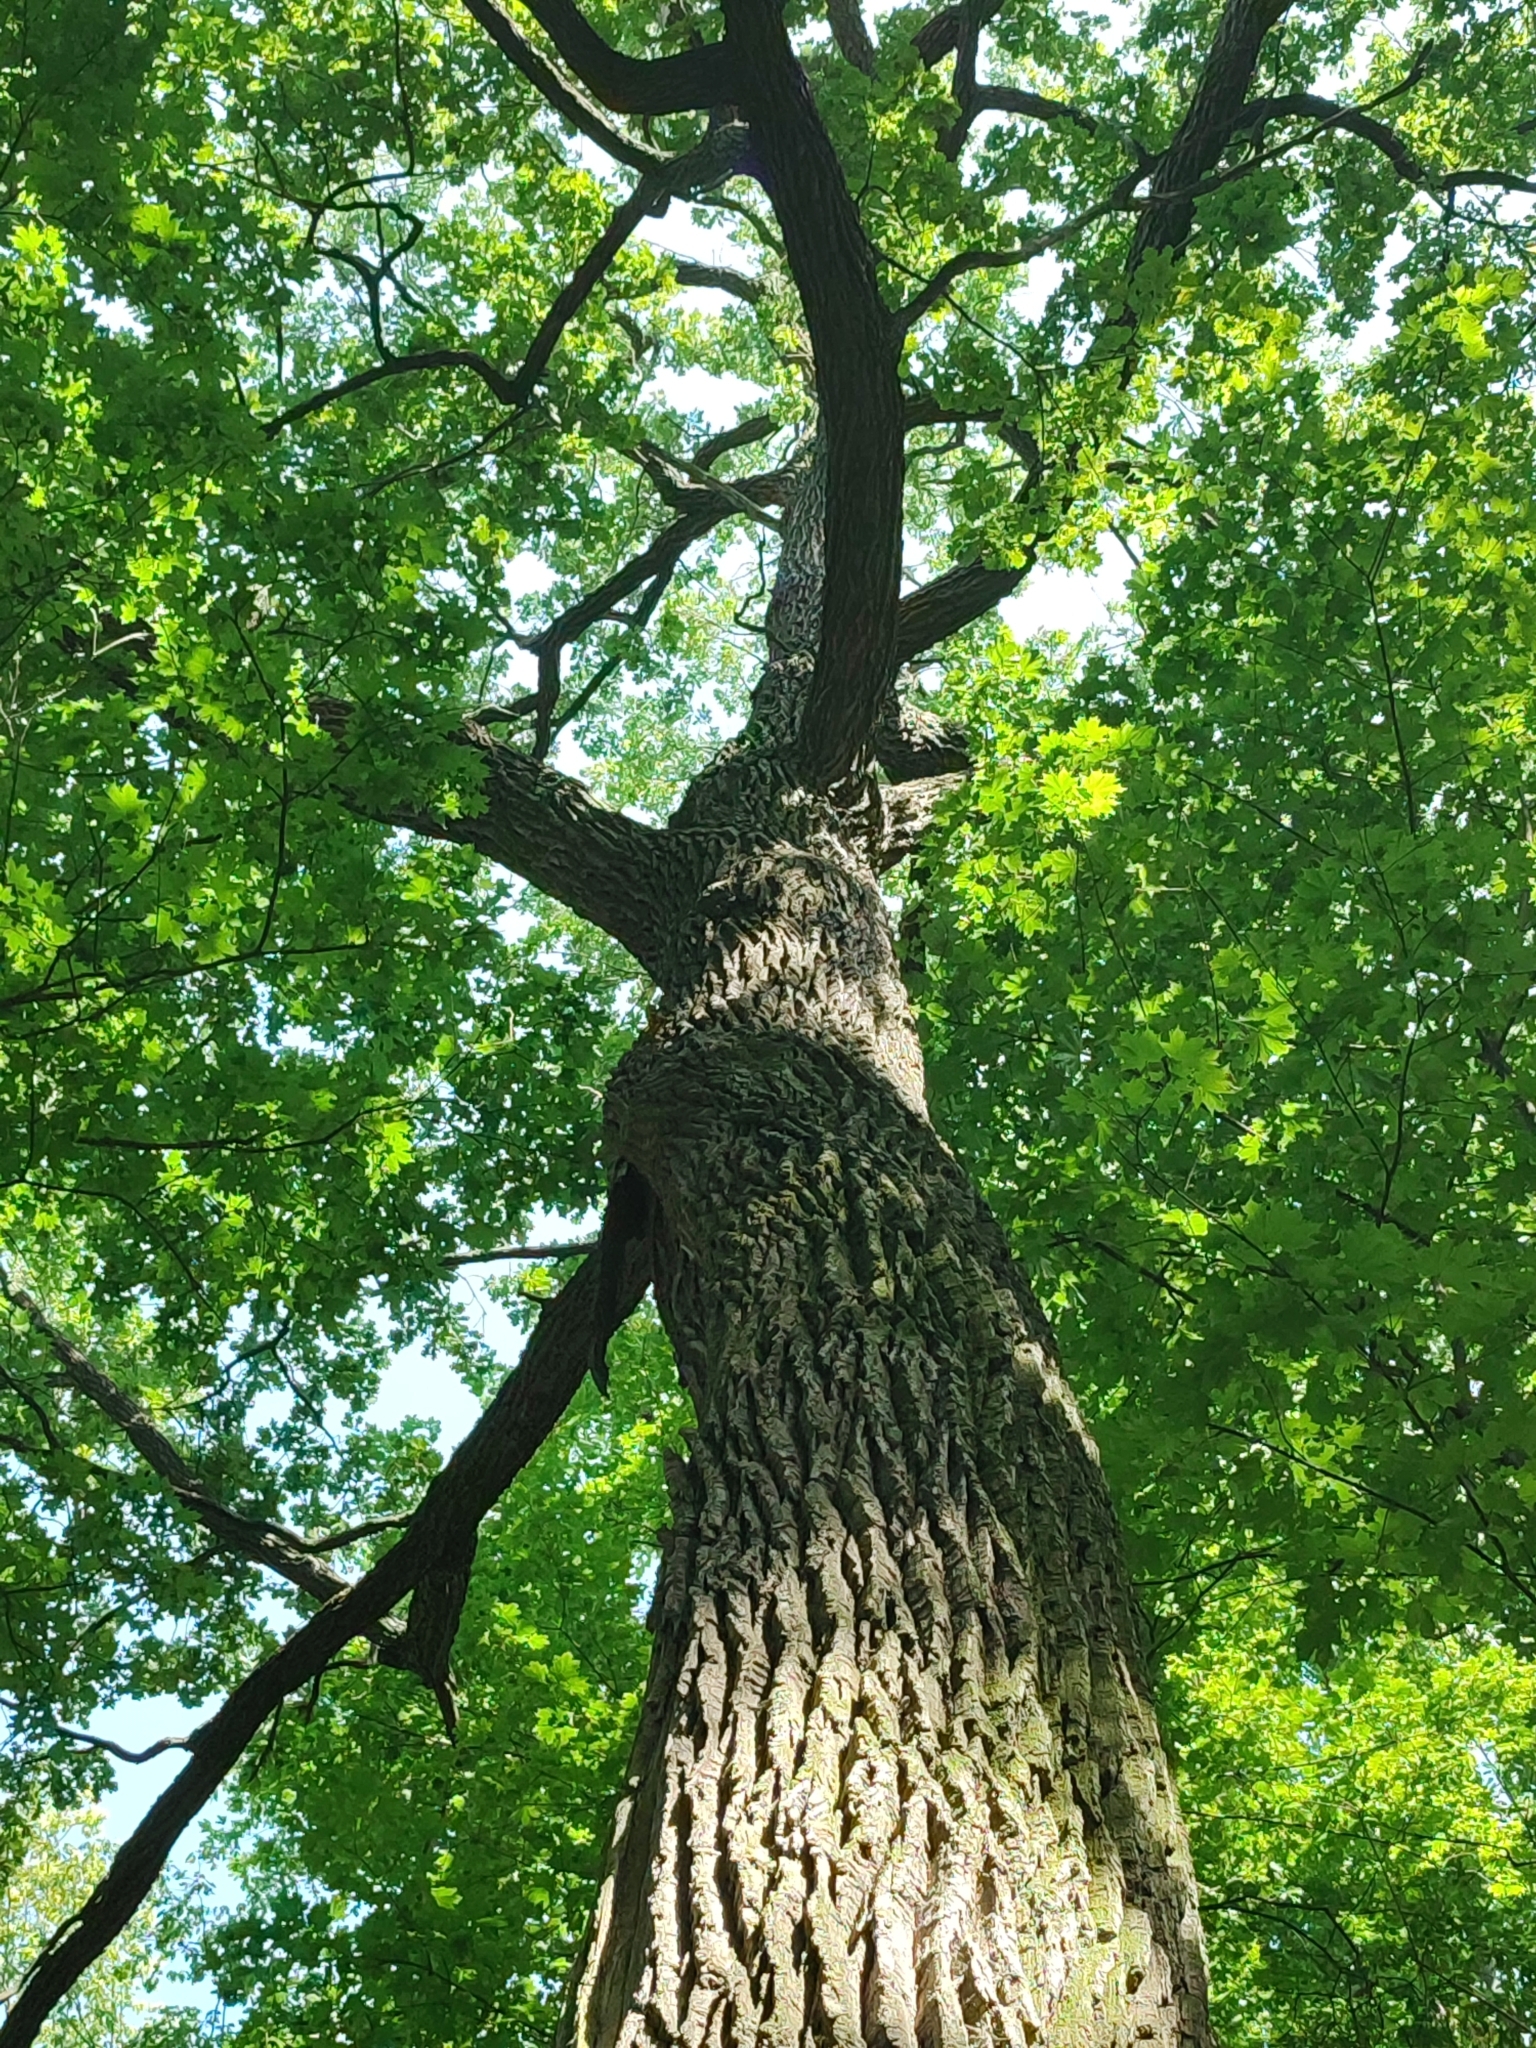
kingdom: Plantae
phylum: Tracheophyta
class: Magnoliopsida
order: Fagales
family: Fagaceae
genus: Quercus
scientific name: Quercus robur
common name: Pedunculate oak
